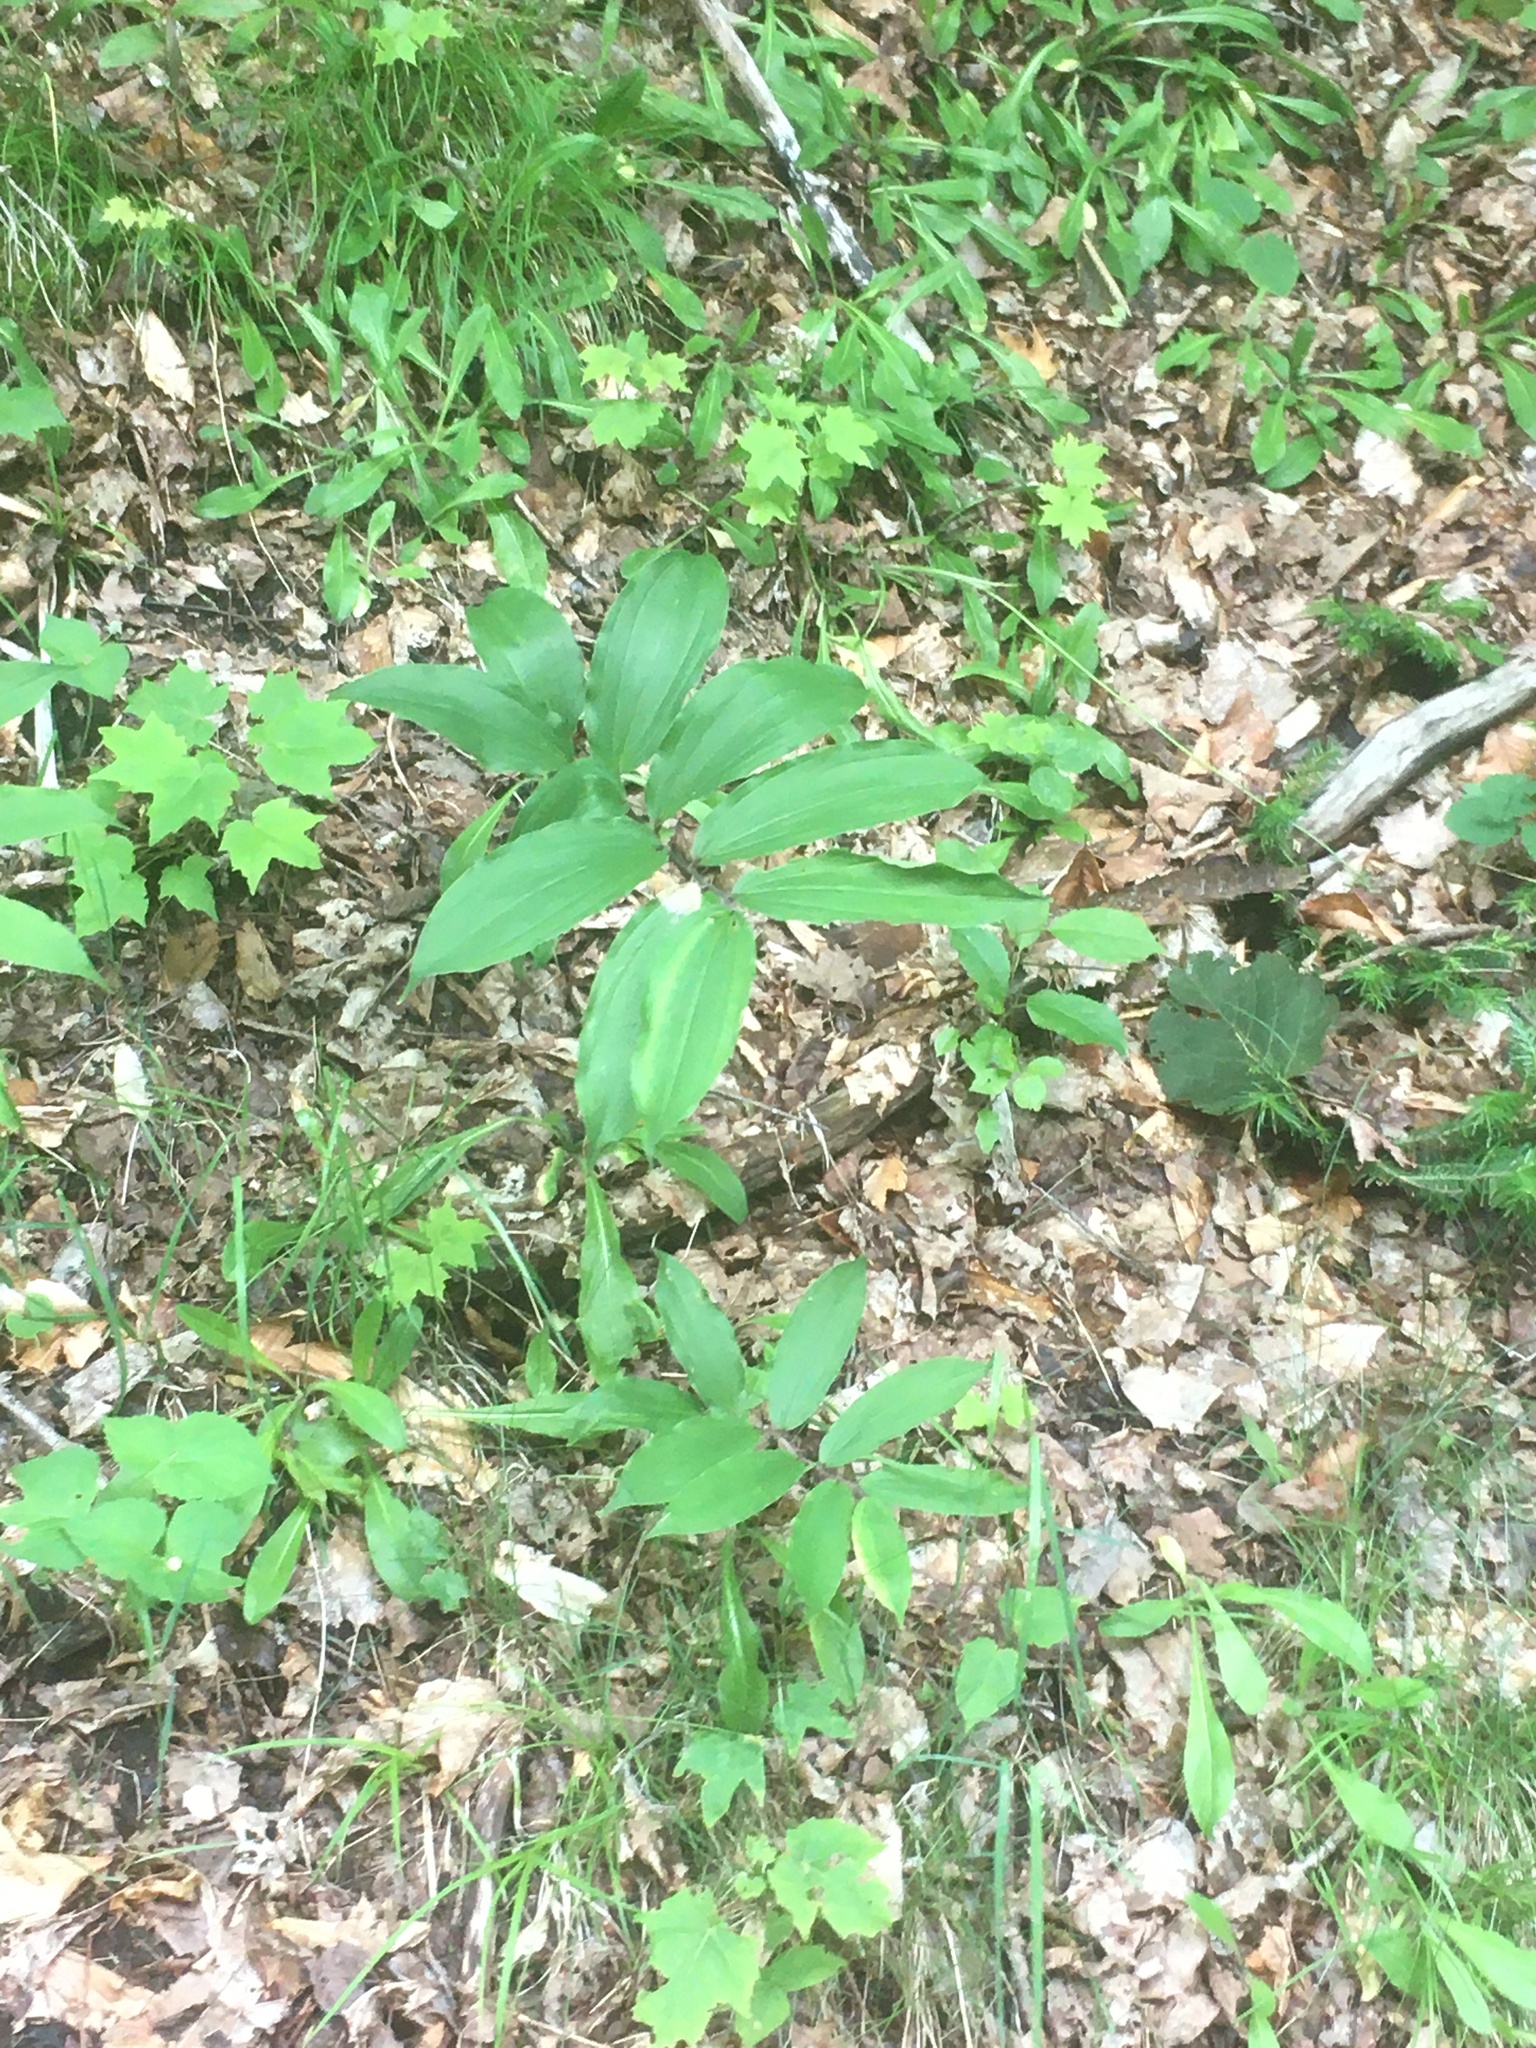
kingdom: Plantae
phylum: Tracheophyta
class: Liliopsida
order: Asparagales
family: Asparagaceae
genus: Maianthemum
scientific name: Maianthemum racemosum
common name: False spikenard
